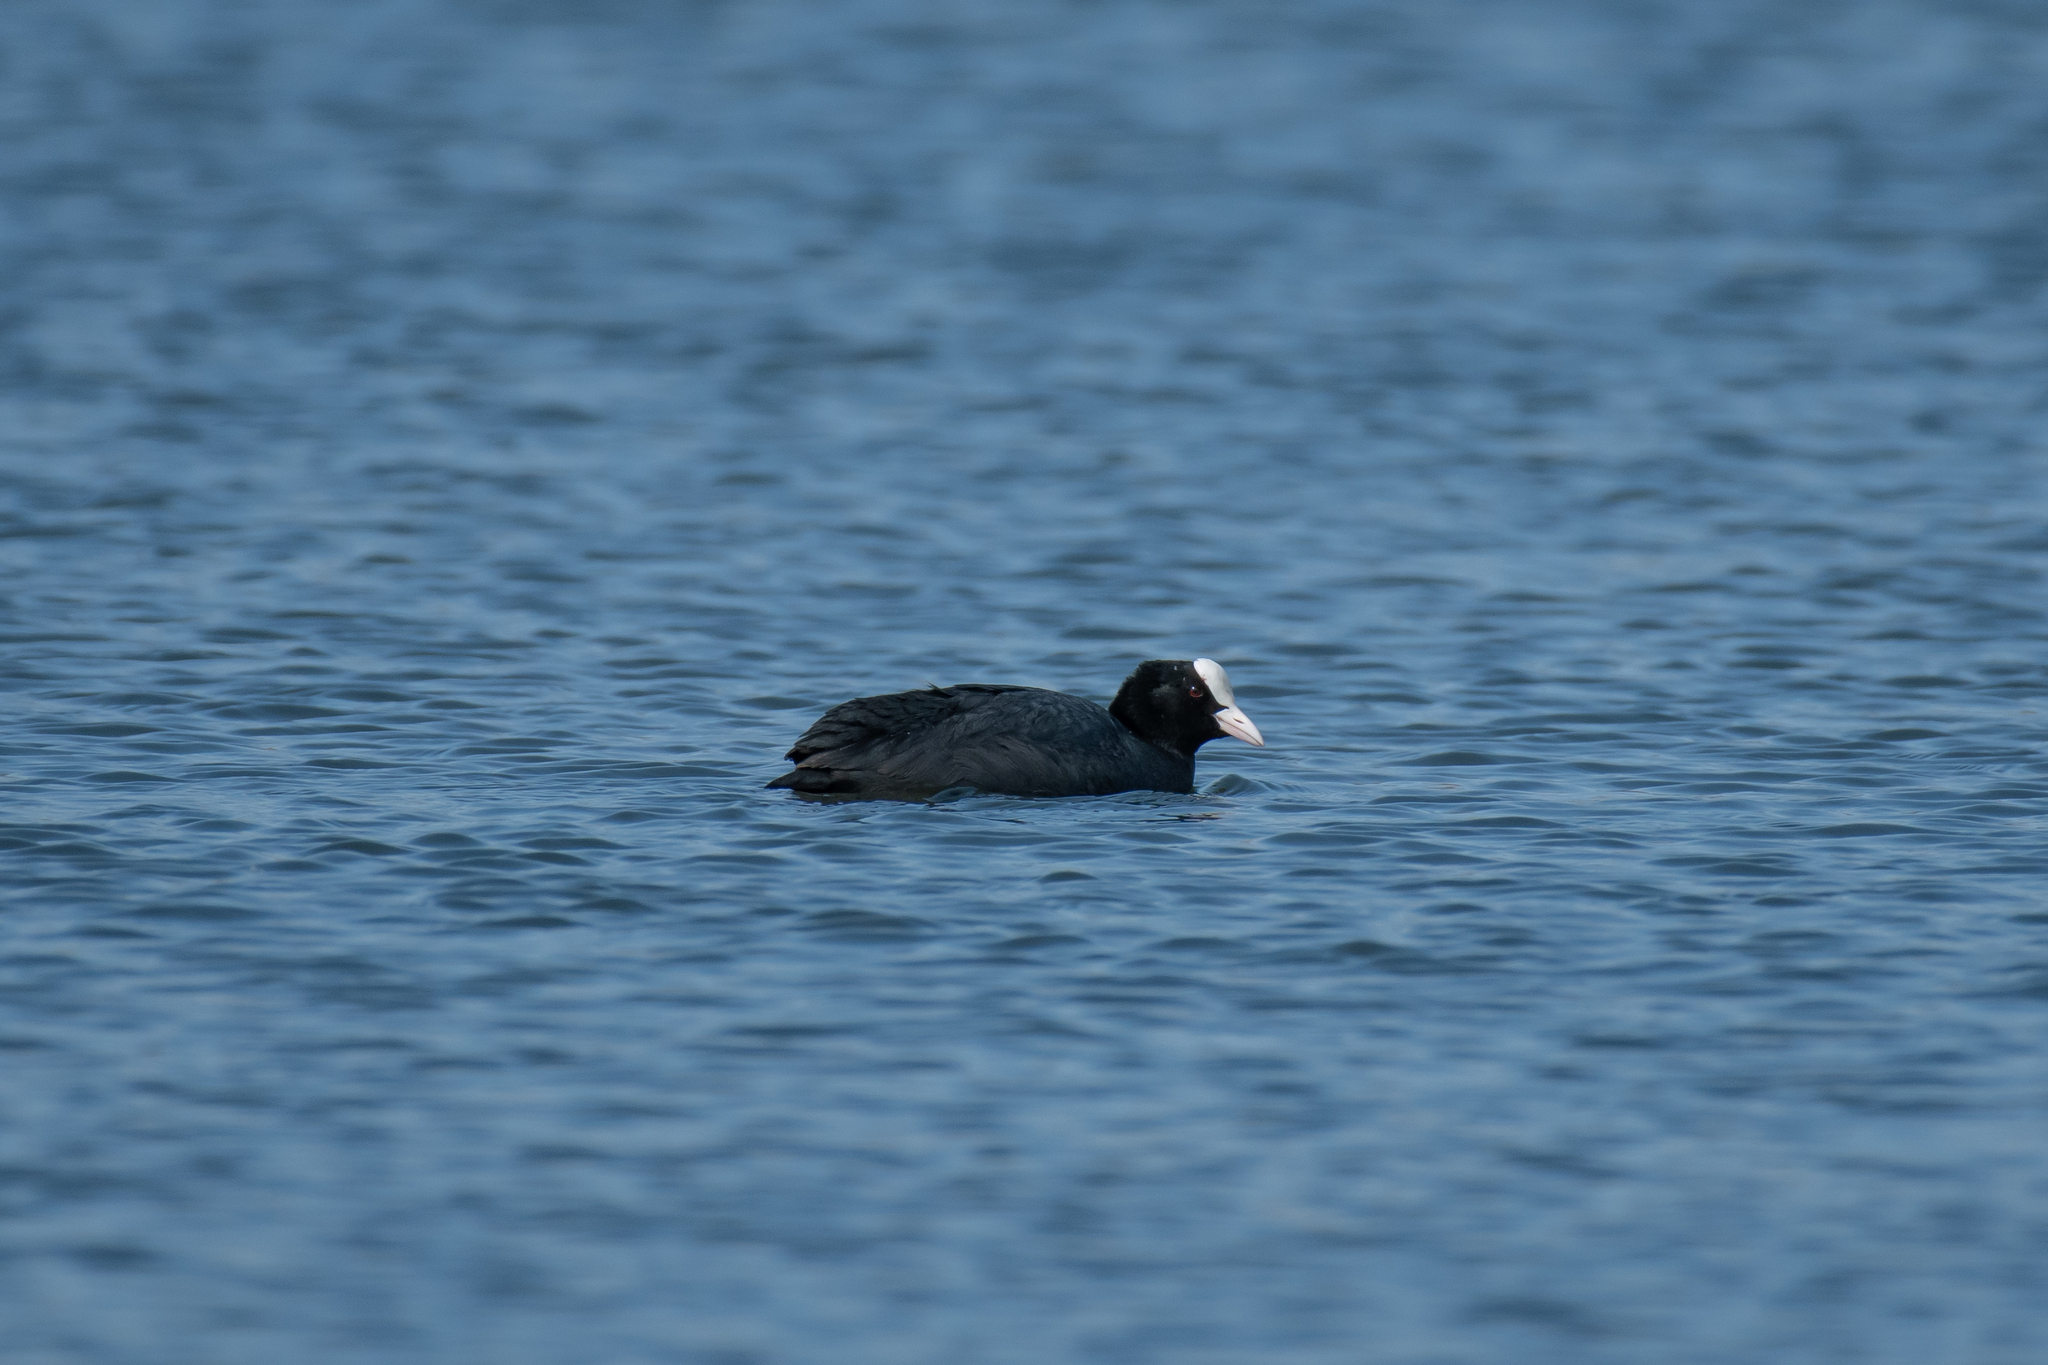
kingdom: Animalia
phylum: Chordata
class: Aves
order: Gruiformes
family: Rallidae
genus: Fulica
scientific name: Fulica atra
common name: Eurasian coot
